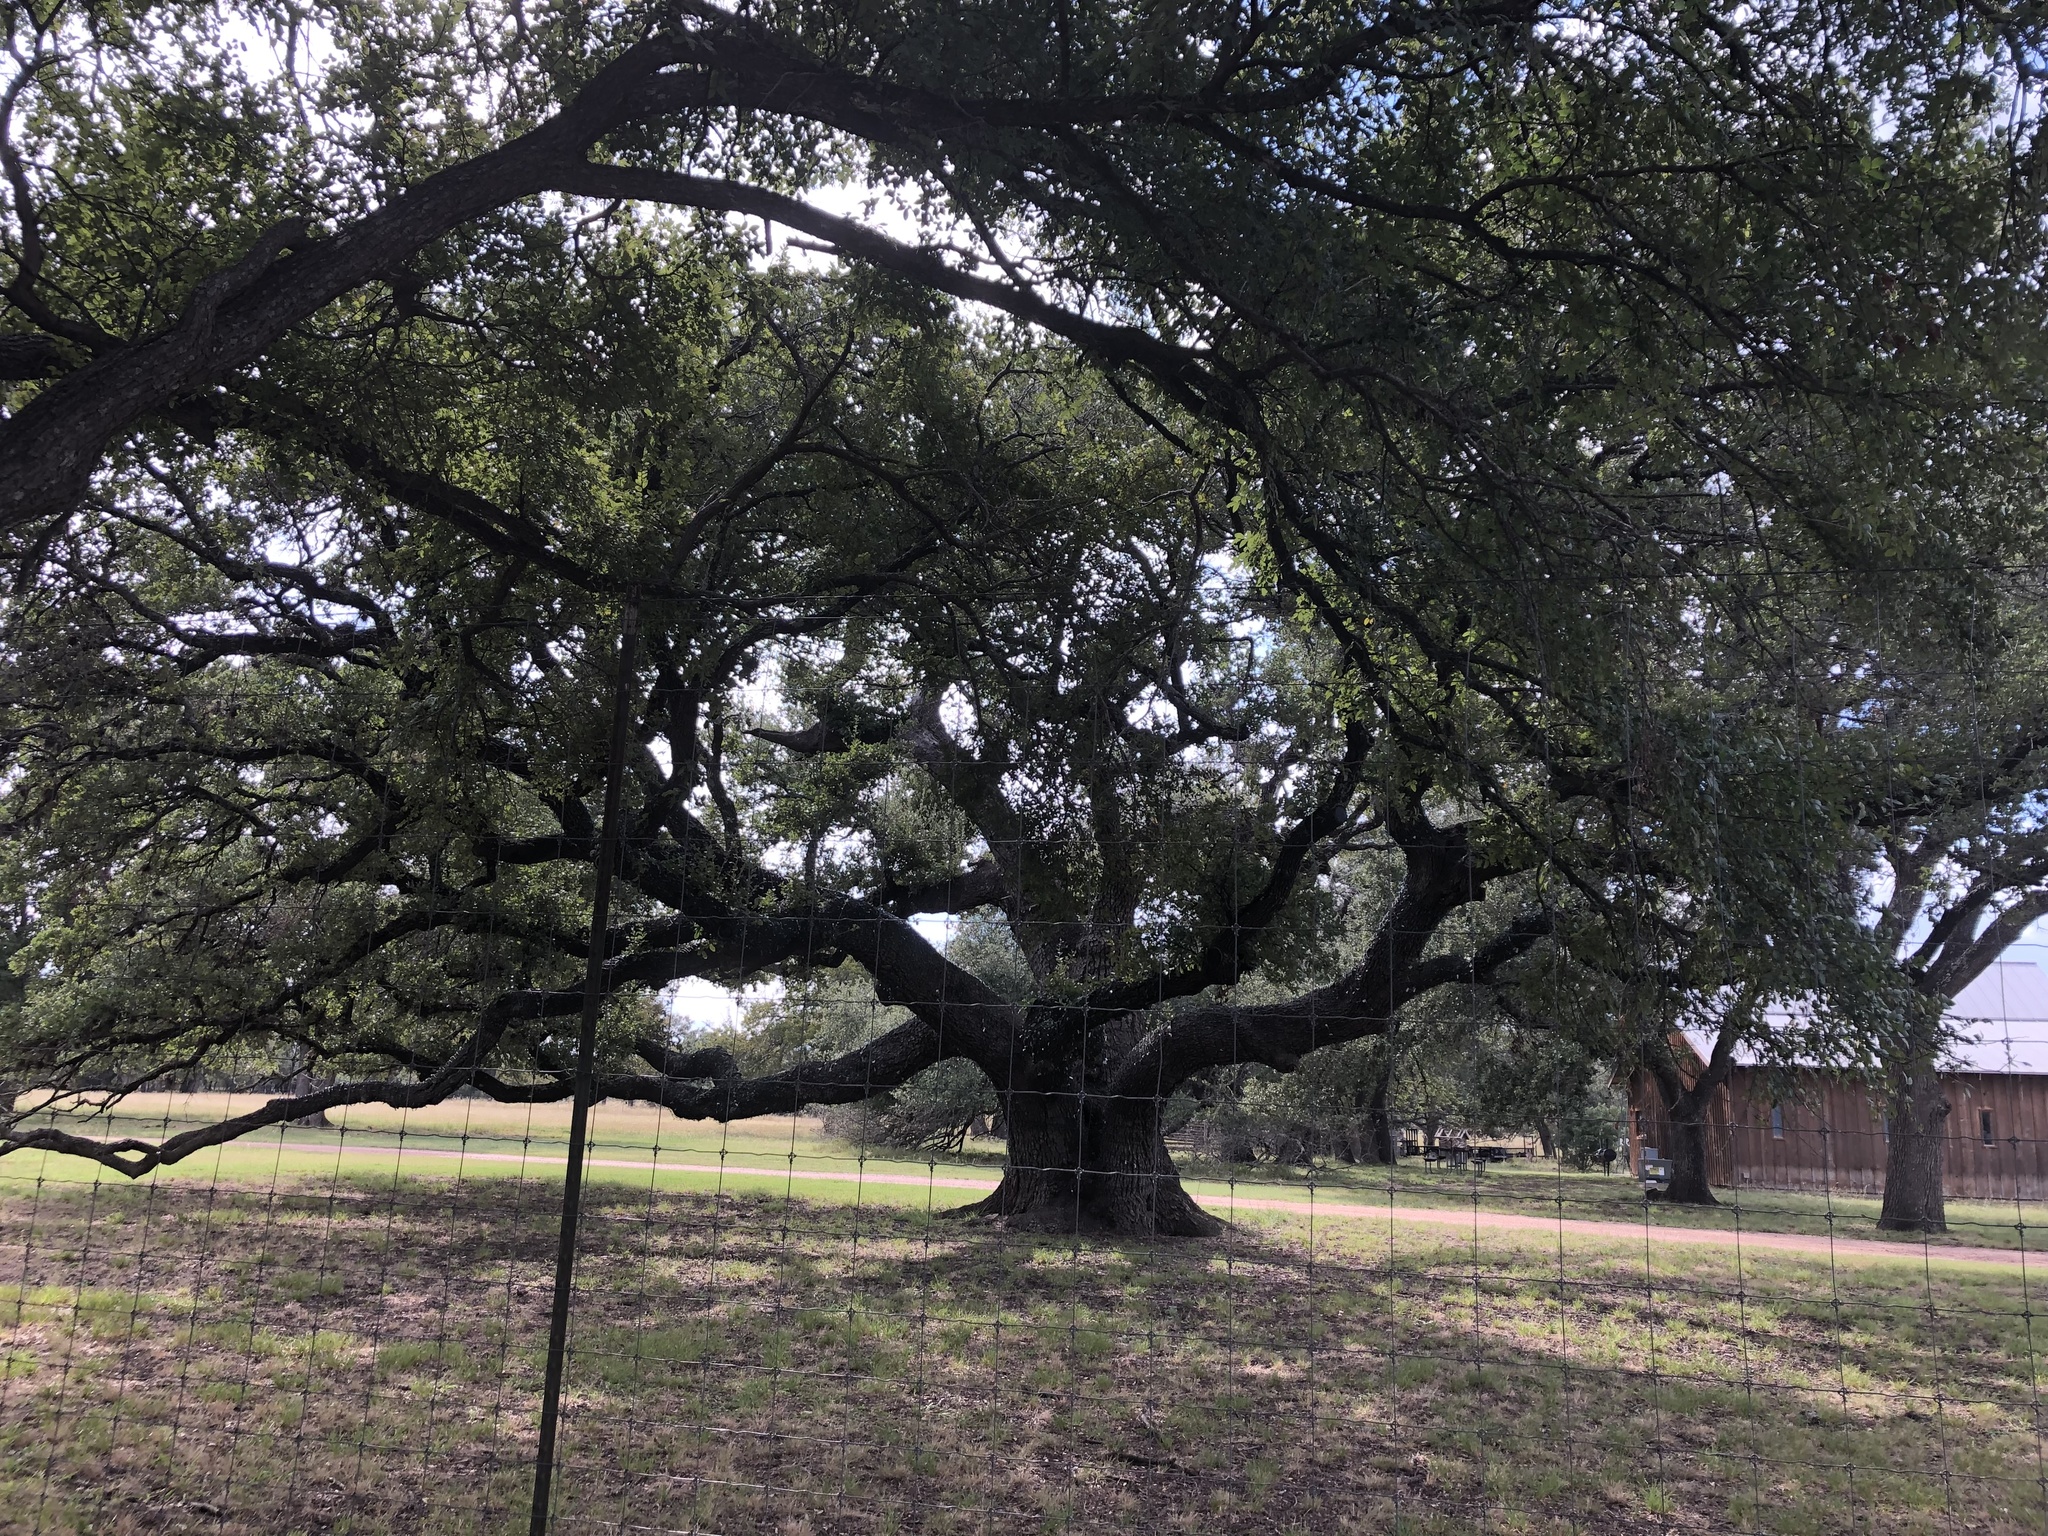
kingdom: Plantae
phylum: Tracheophyta
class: Magnoliopsida
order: Fagales
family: Fagaceae
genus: Quercus
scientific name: Quercus fusiformis
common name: Texas live oak
